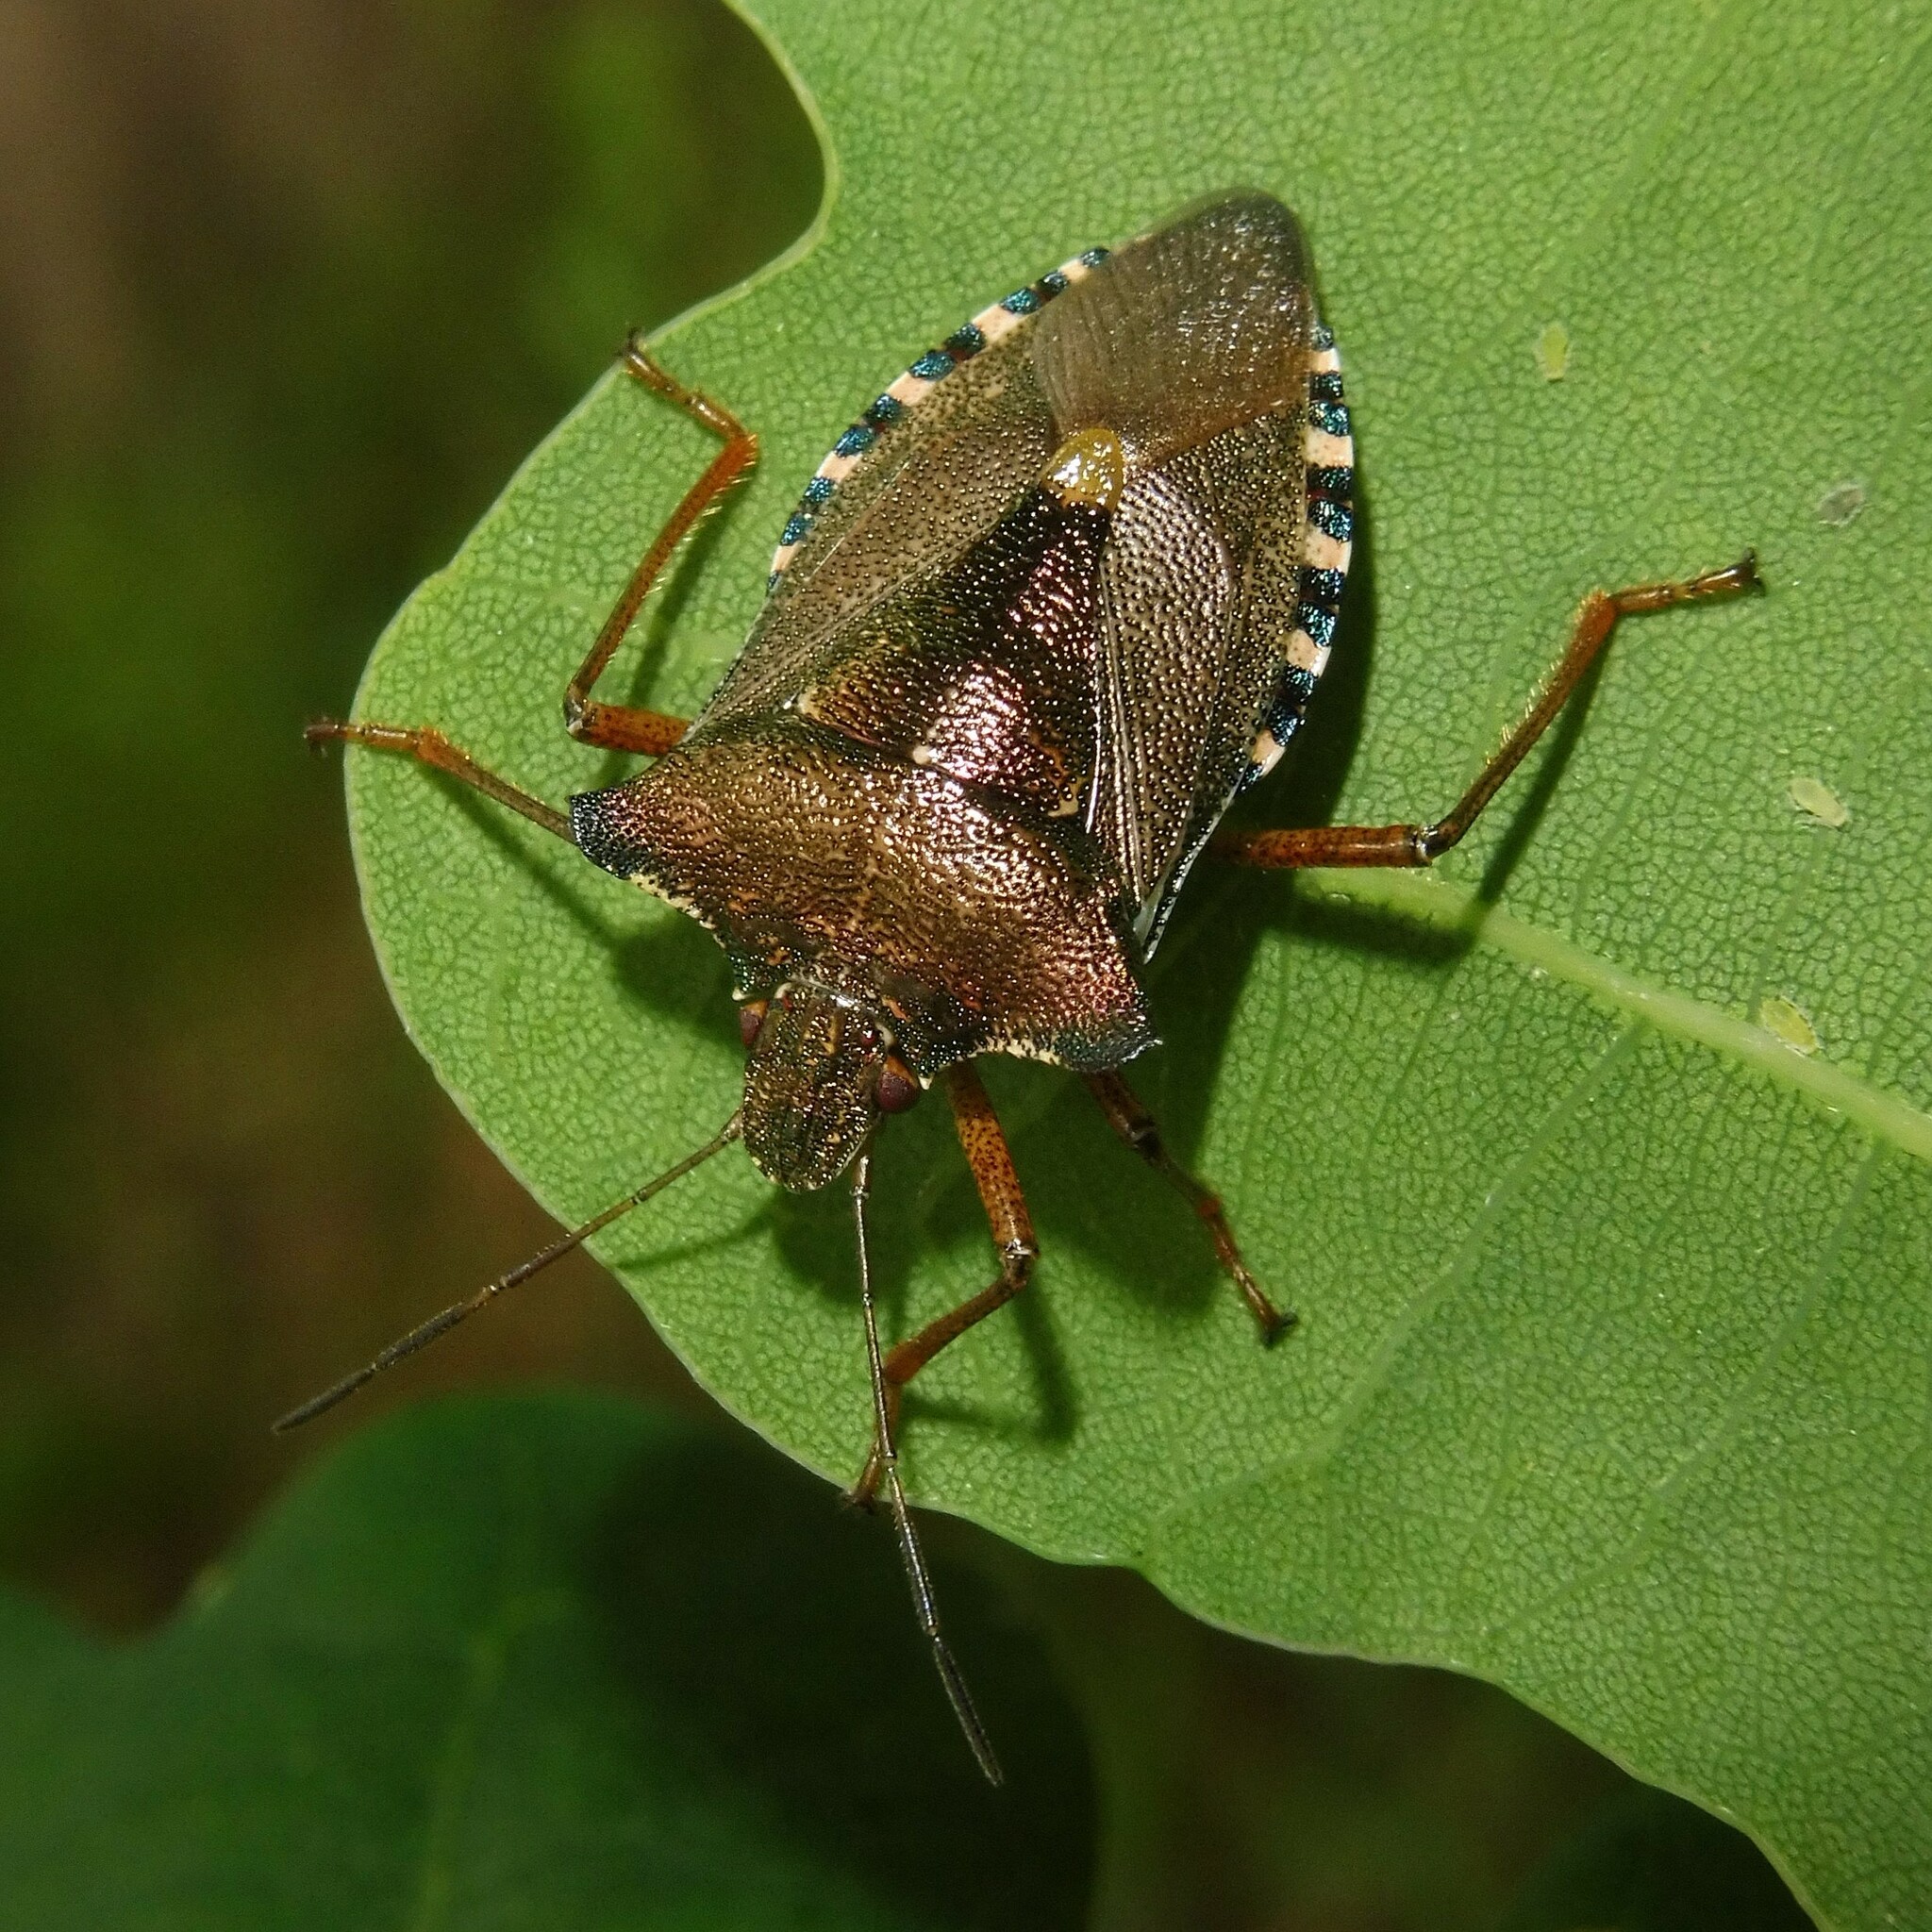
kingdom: Animalia
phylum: Arthropoda
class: Insecta
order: Hemiptera
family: Pentatomidae
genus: Pentatoma
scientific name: Pentatoma rufipes
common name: Forest bug
